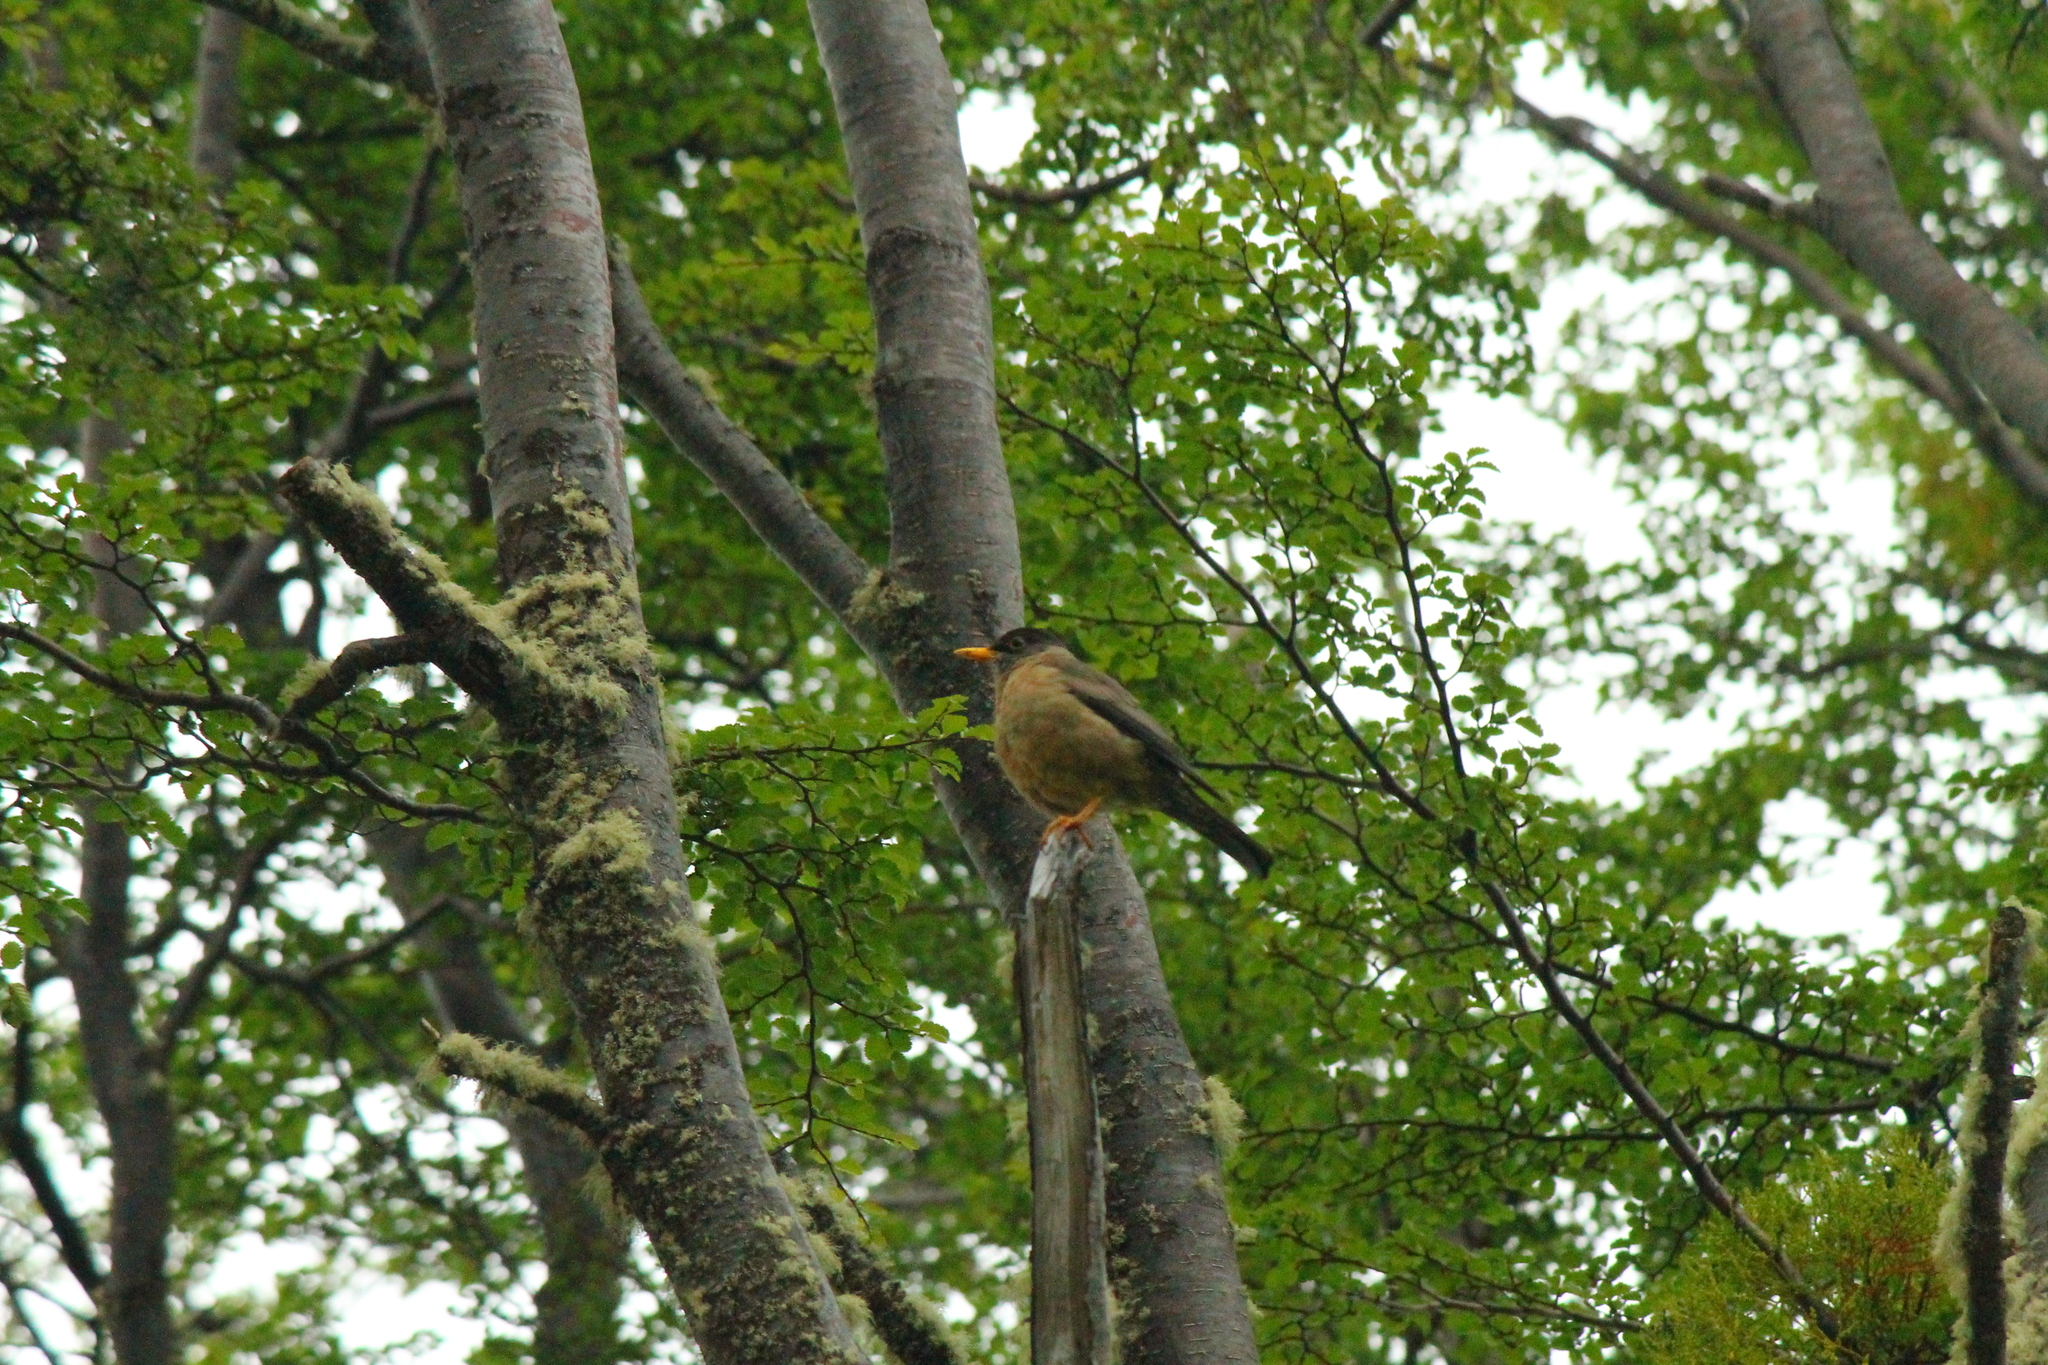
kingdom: Animalia
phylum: Chordata
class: Aves
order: Passeriformes
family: Turdidae
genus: Turdus
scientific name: Turdus falcklandii
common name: Austral thrush
